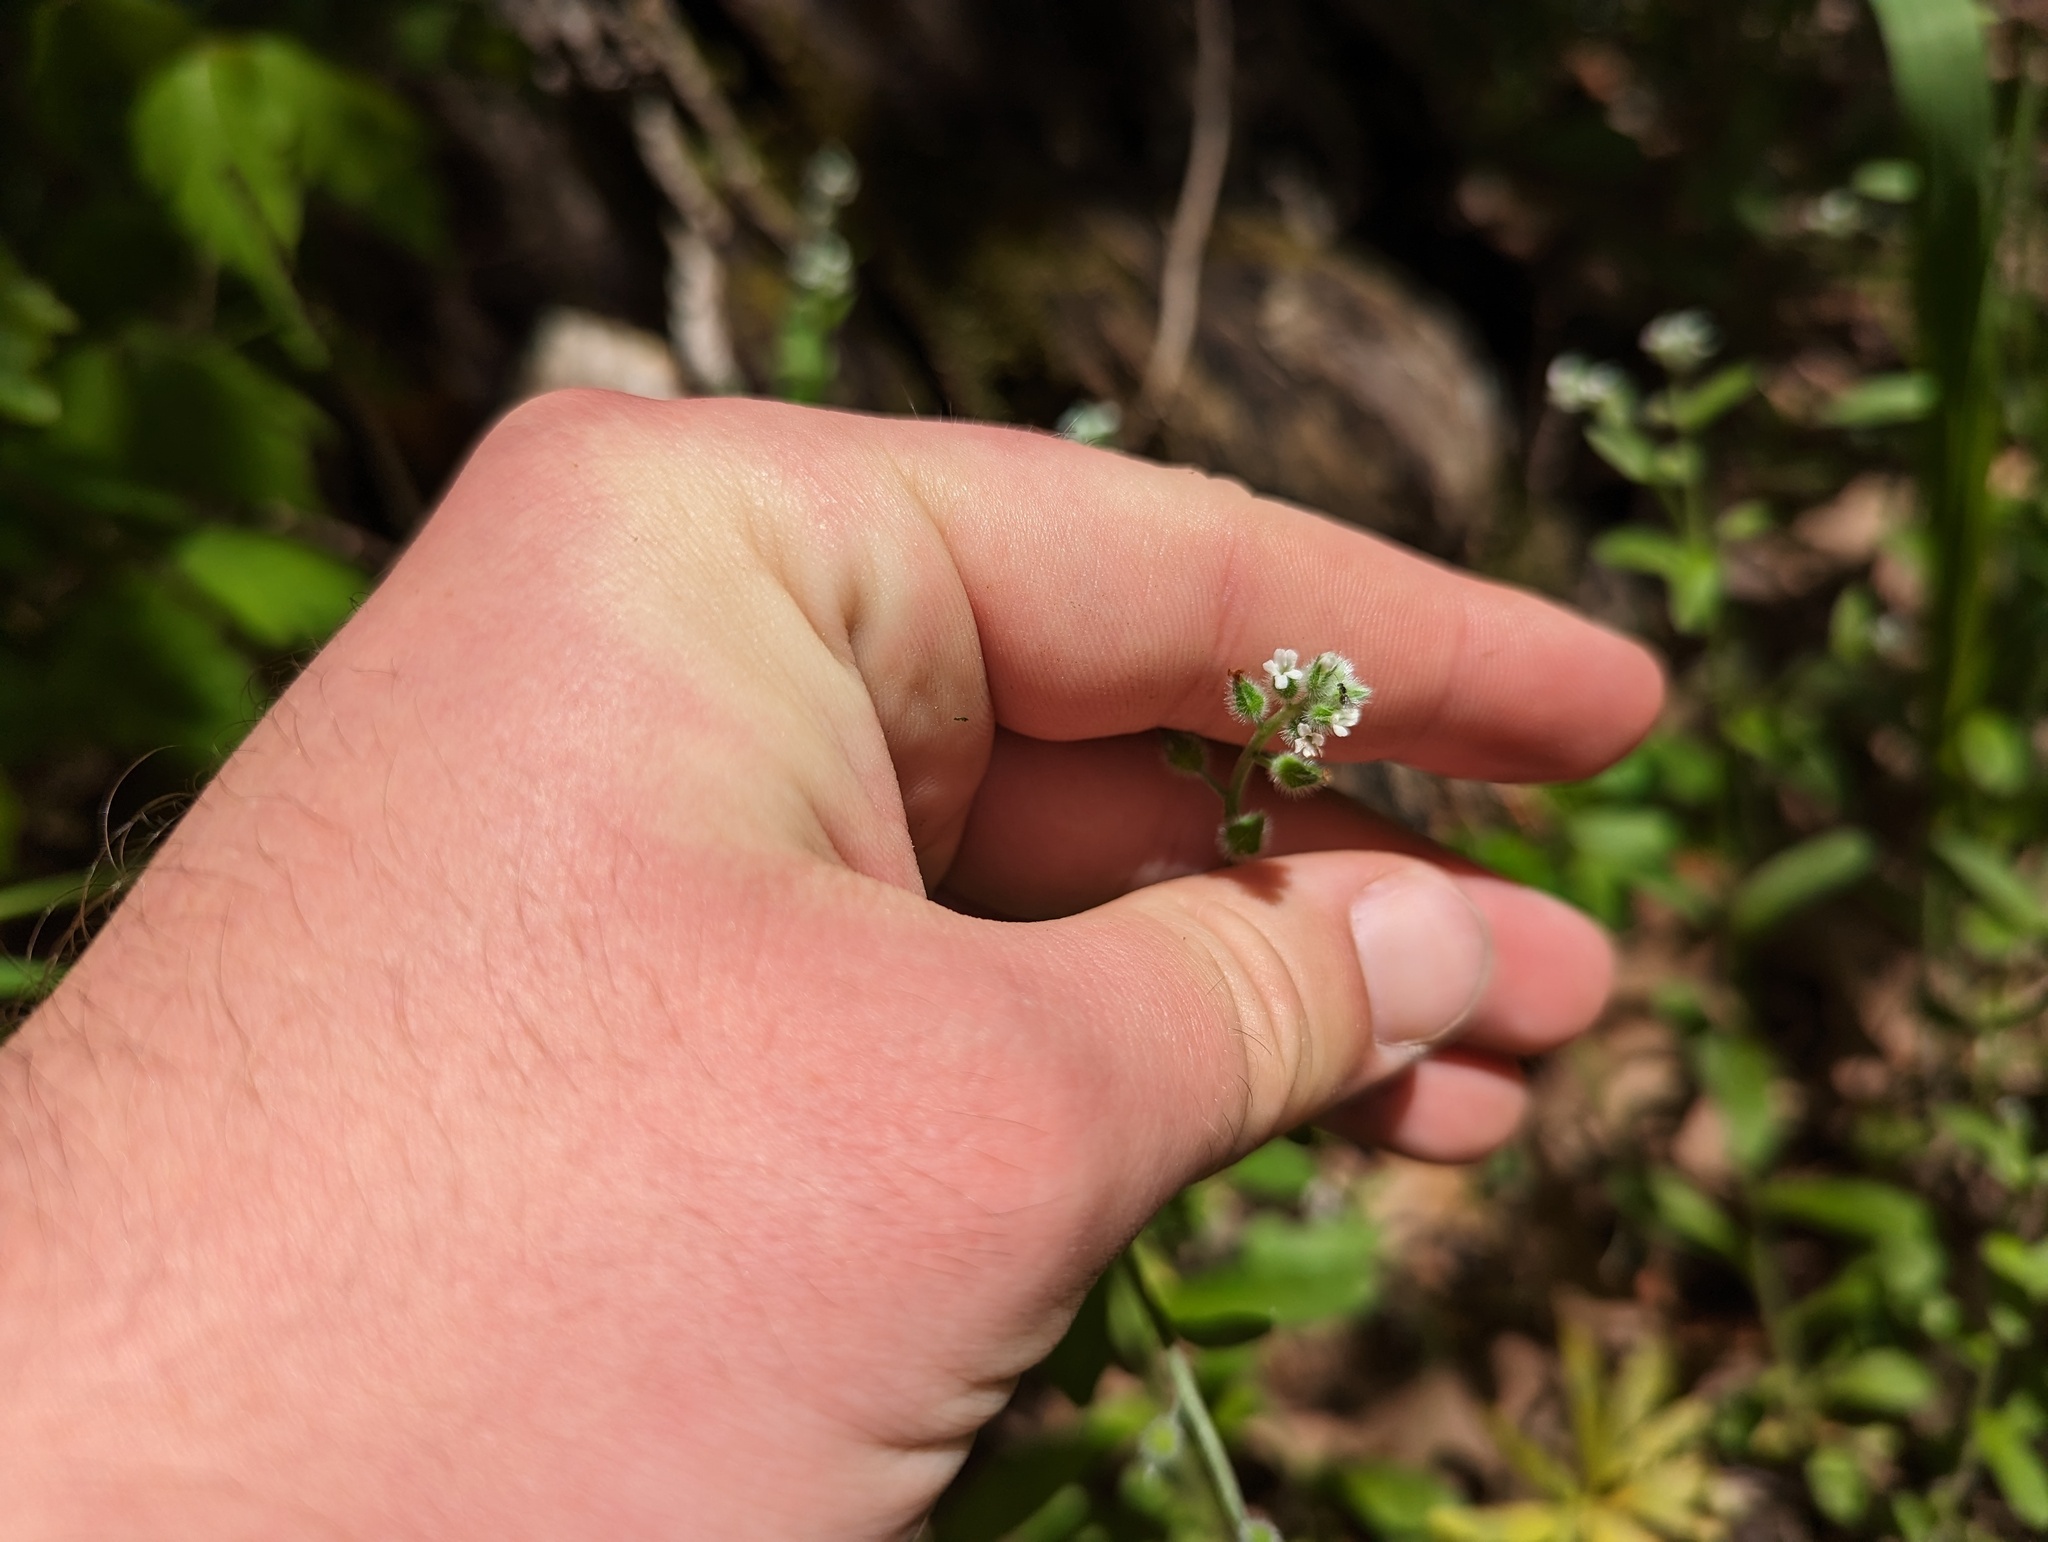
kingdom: Plantae
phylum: Tracheophyta
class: Magnoliopsida
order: Boraginales
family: Boraginaceae
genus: Myosotis
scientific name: Myosotis macrosperma
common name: Large-seed forget-me-not
